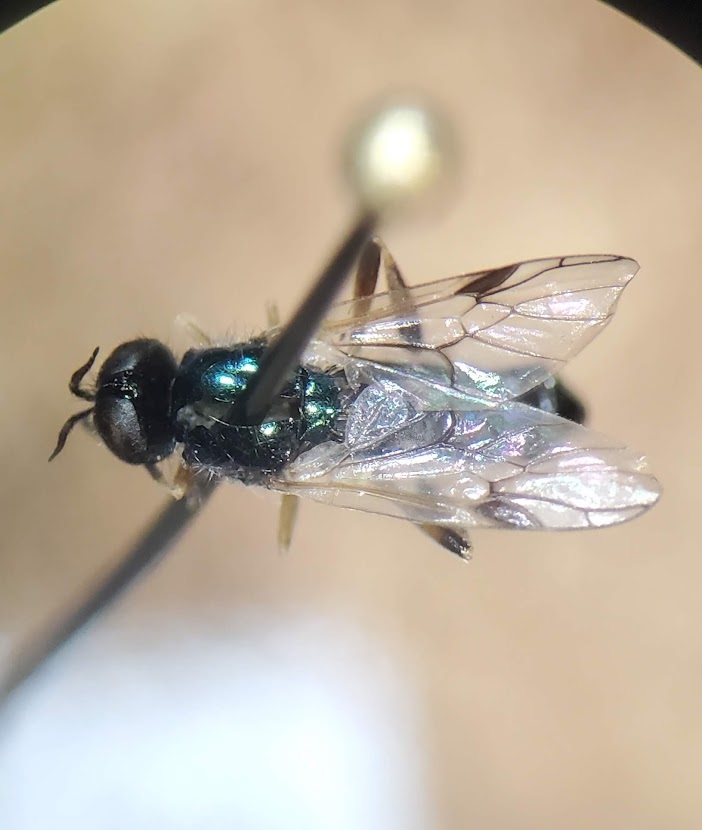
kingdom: Animalia
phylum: Arthropoda
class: Insecta
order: Diptera
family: Stratiomyidae
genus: Actina
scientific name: Actina viridis
